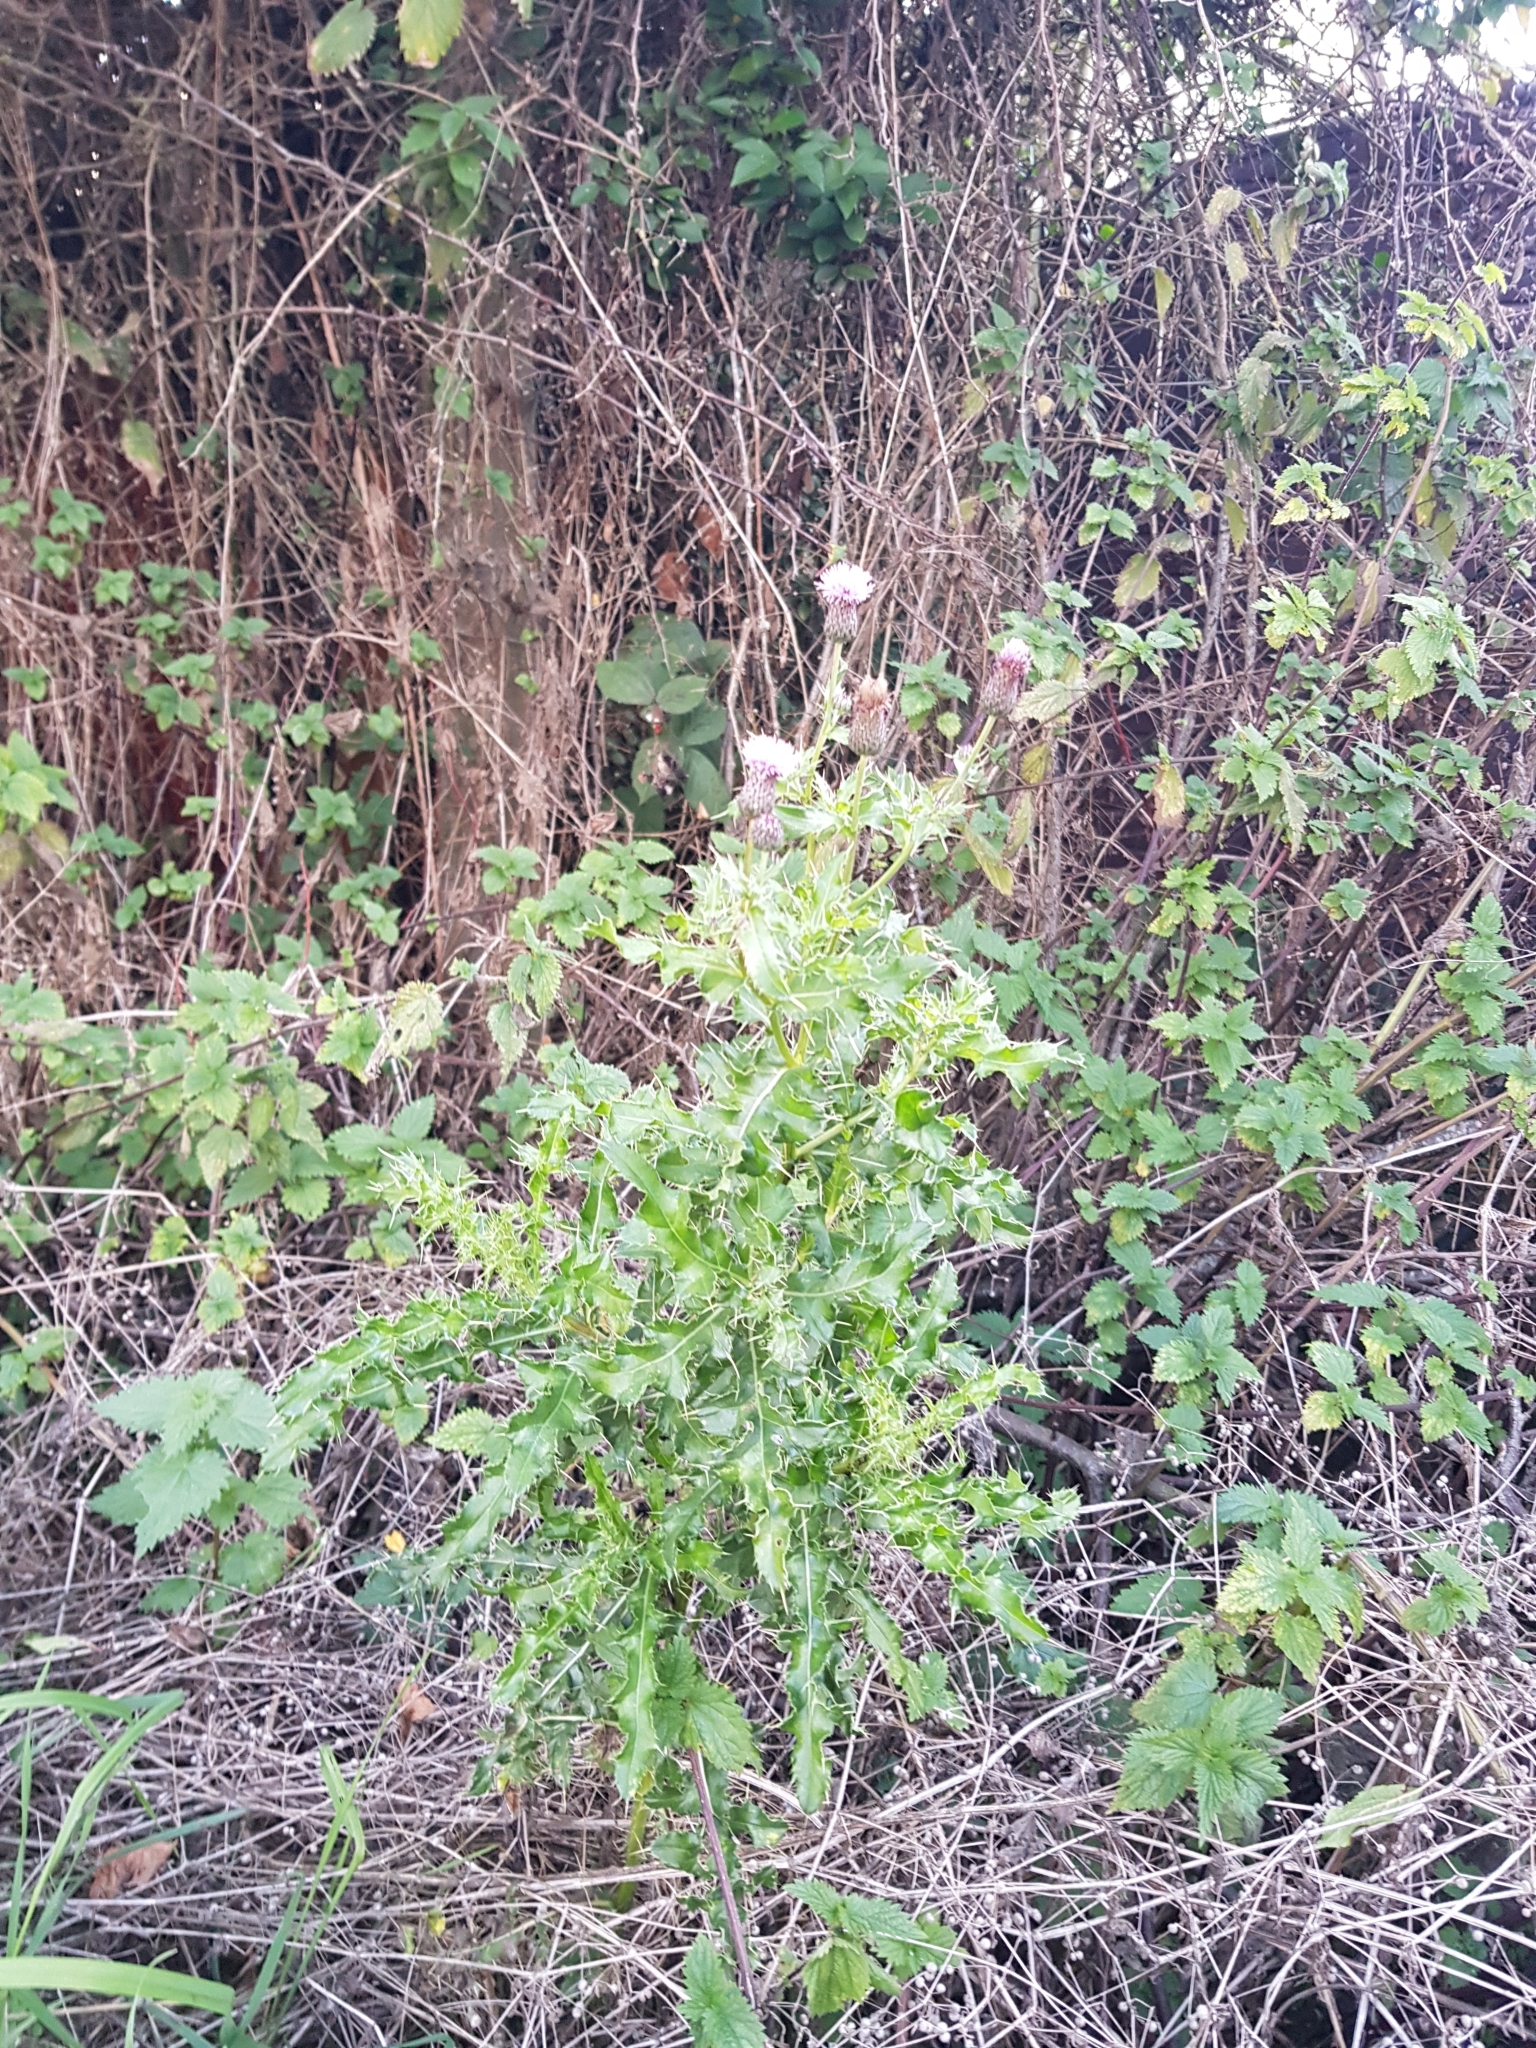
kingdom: Plantae
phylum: Tracheophyta
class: Magnoliopsida
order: Asterales
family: Asteraceae
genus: Cirsium
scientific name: Cirsium arvense
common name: Creeping thistle
